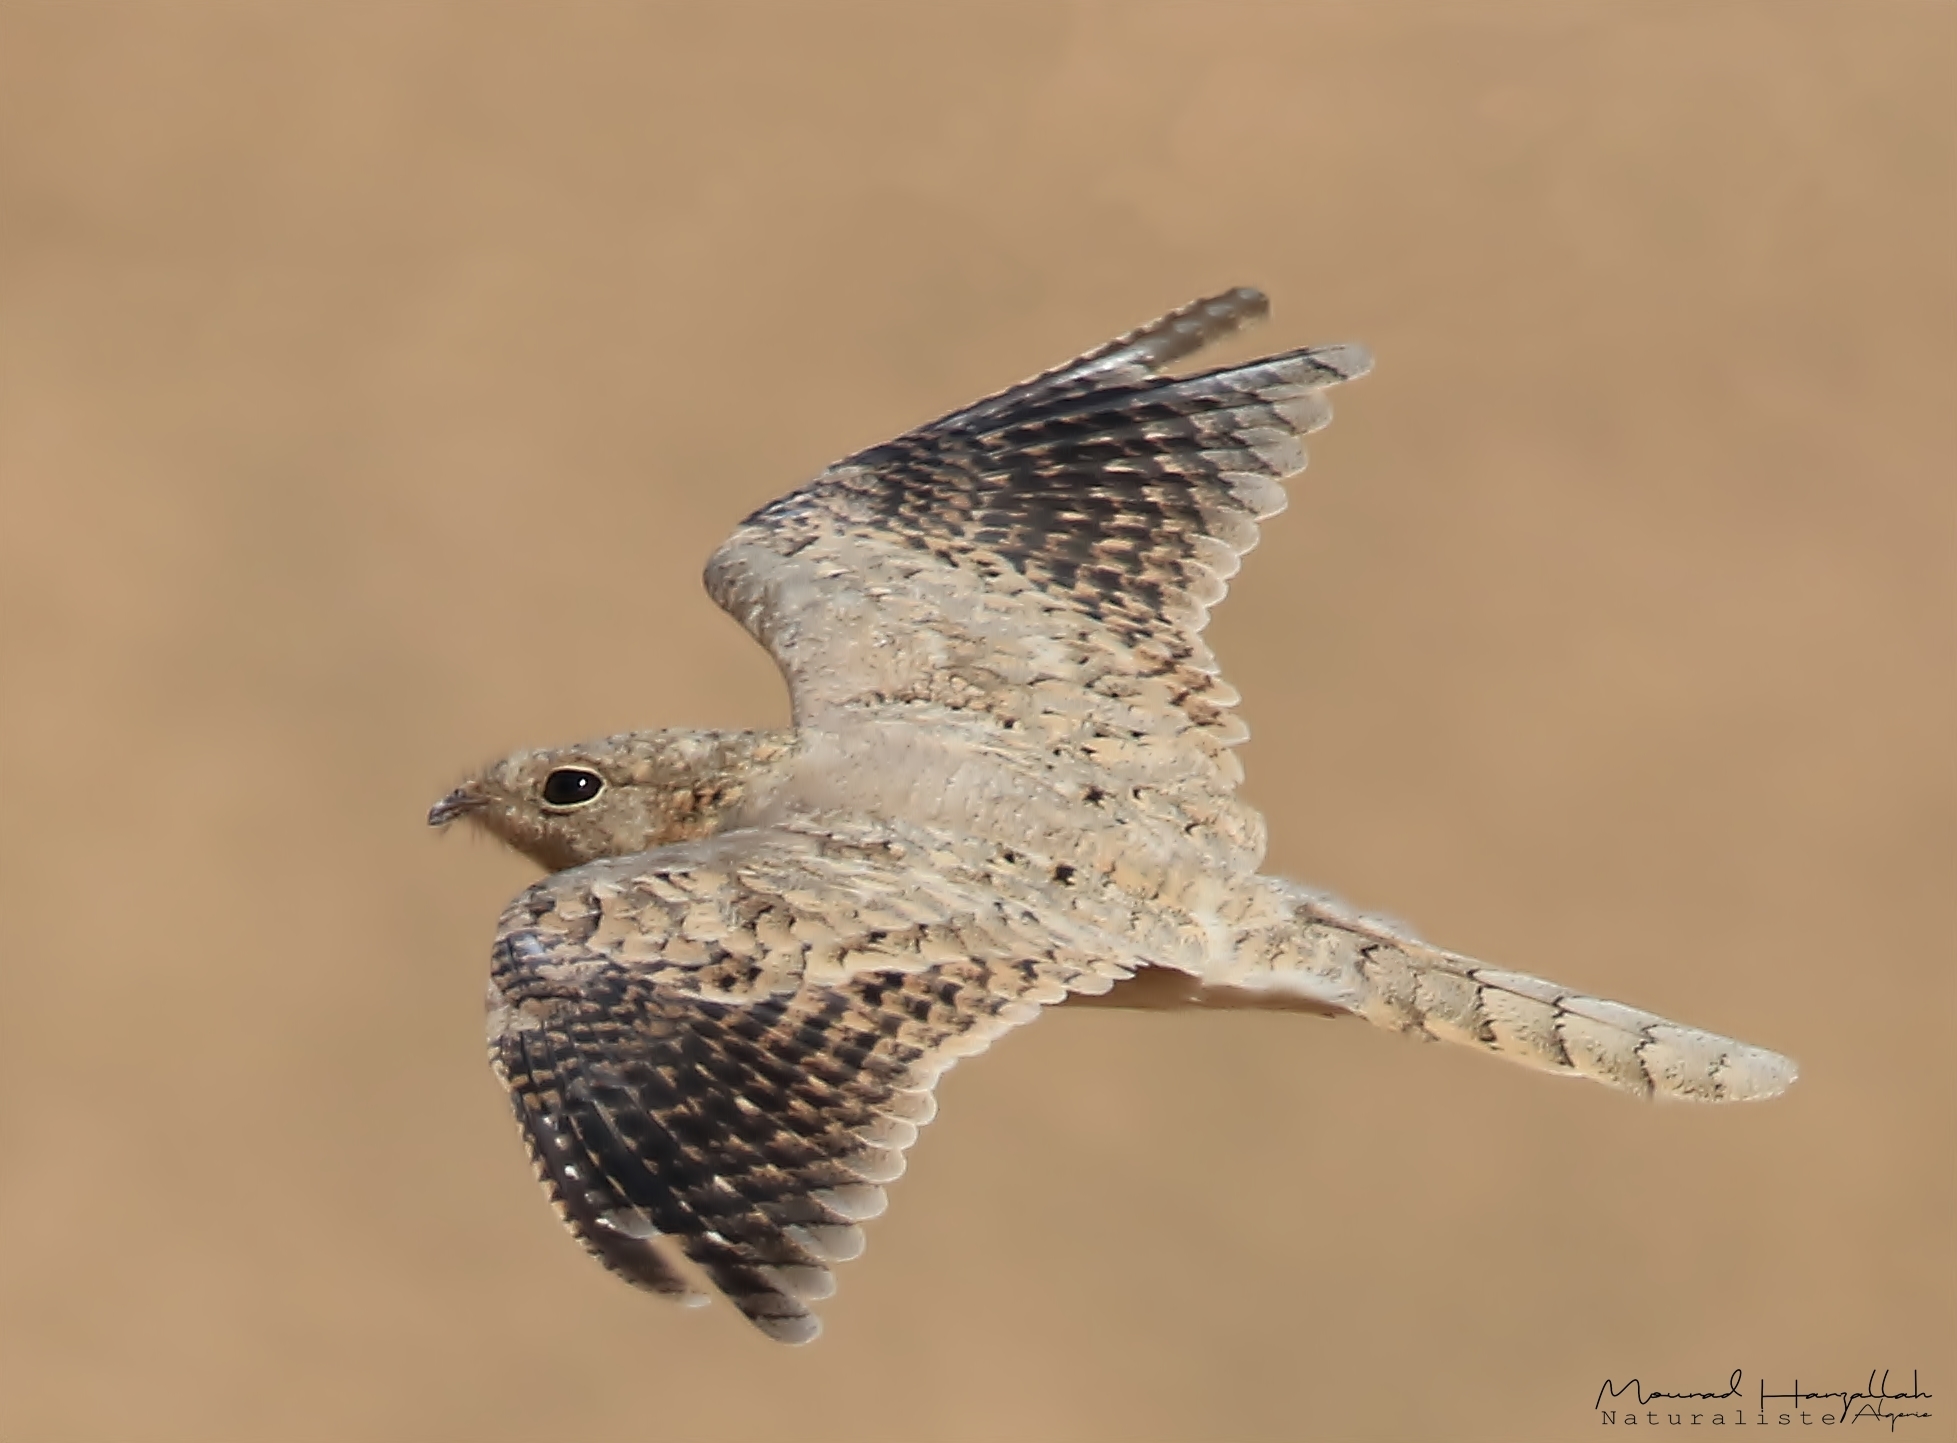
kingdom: Animalia
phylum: Chordata
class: Aves
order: Caprimulgiformes
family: Caprimulgidae
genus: Caprimulgus
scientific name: Caprimulgus aegyptius
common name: Egyptian nightjar
